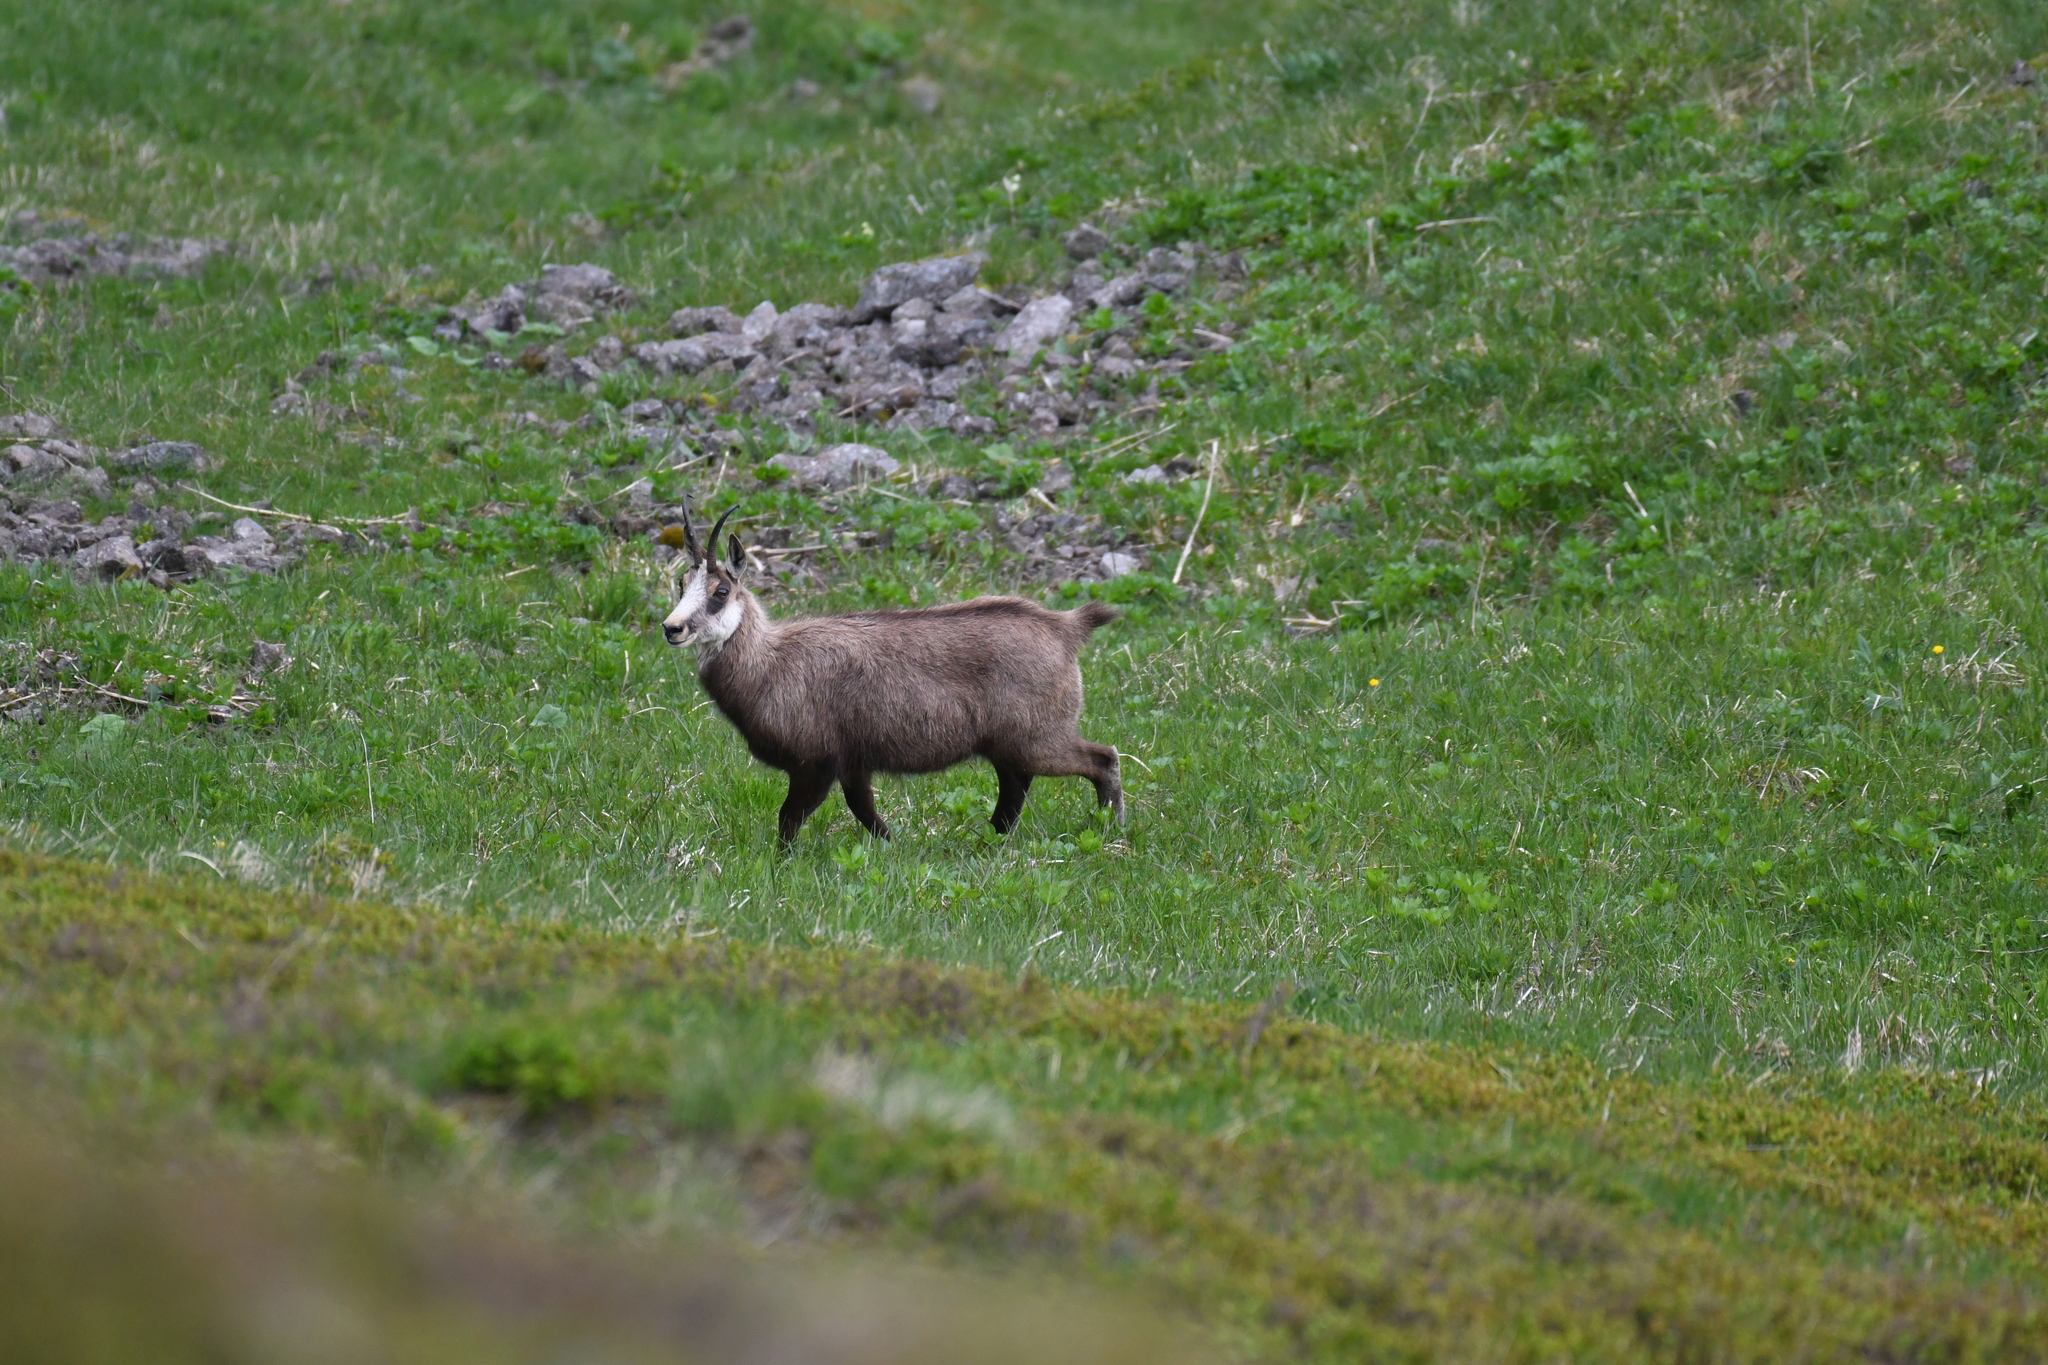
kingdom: Animalia
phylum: Chordata
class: Mammalia
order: Artiodactyla
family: Bovidae
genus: Rupicapra
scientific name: Rupicapra rupicapra
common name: Chamois
